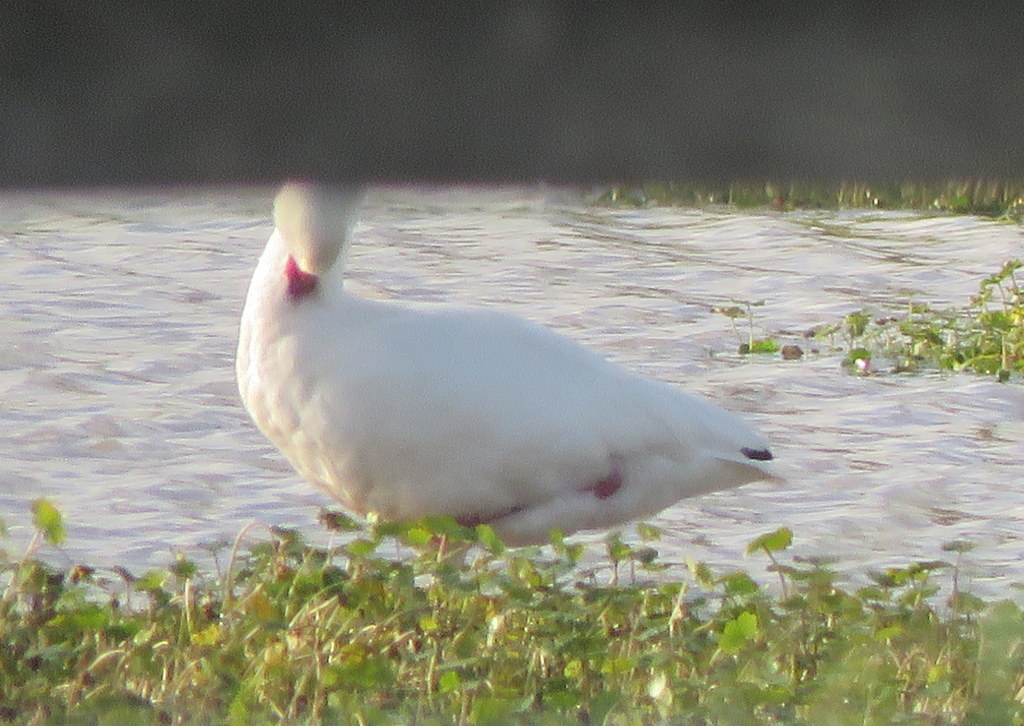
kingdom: Animalia
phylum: Chordata
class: Aves
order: Anseriformes
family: Anatidae
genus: Coscoroba
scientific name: Coscoroba coscoroba
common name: Coscoroba swan
